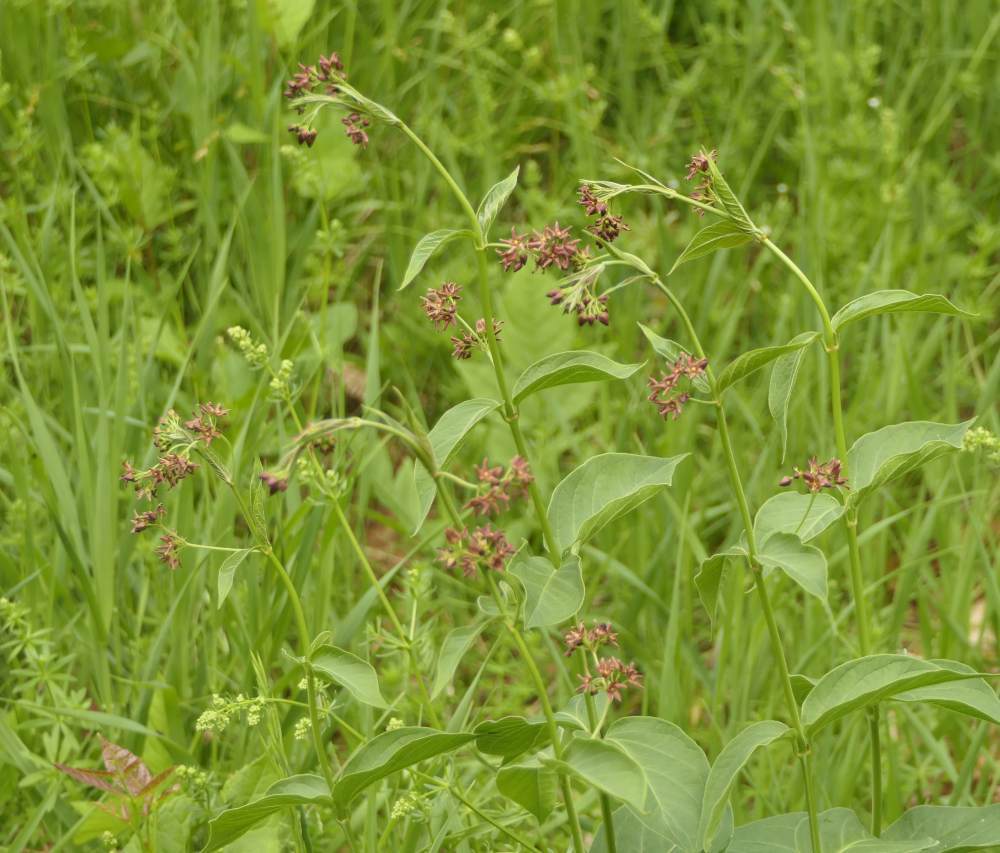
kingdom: Plantae
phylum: Tracheophyta
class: Magnoliopsida
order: Gentianales
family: Apocynaceae
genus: Vincetoxicum
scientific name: Vincetoxicum rossicum
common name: Dog-strangling vine
